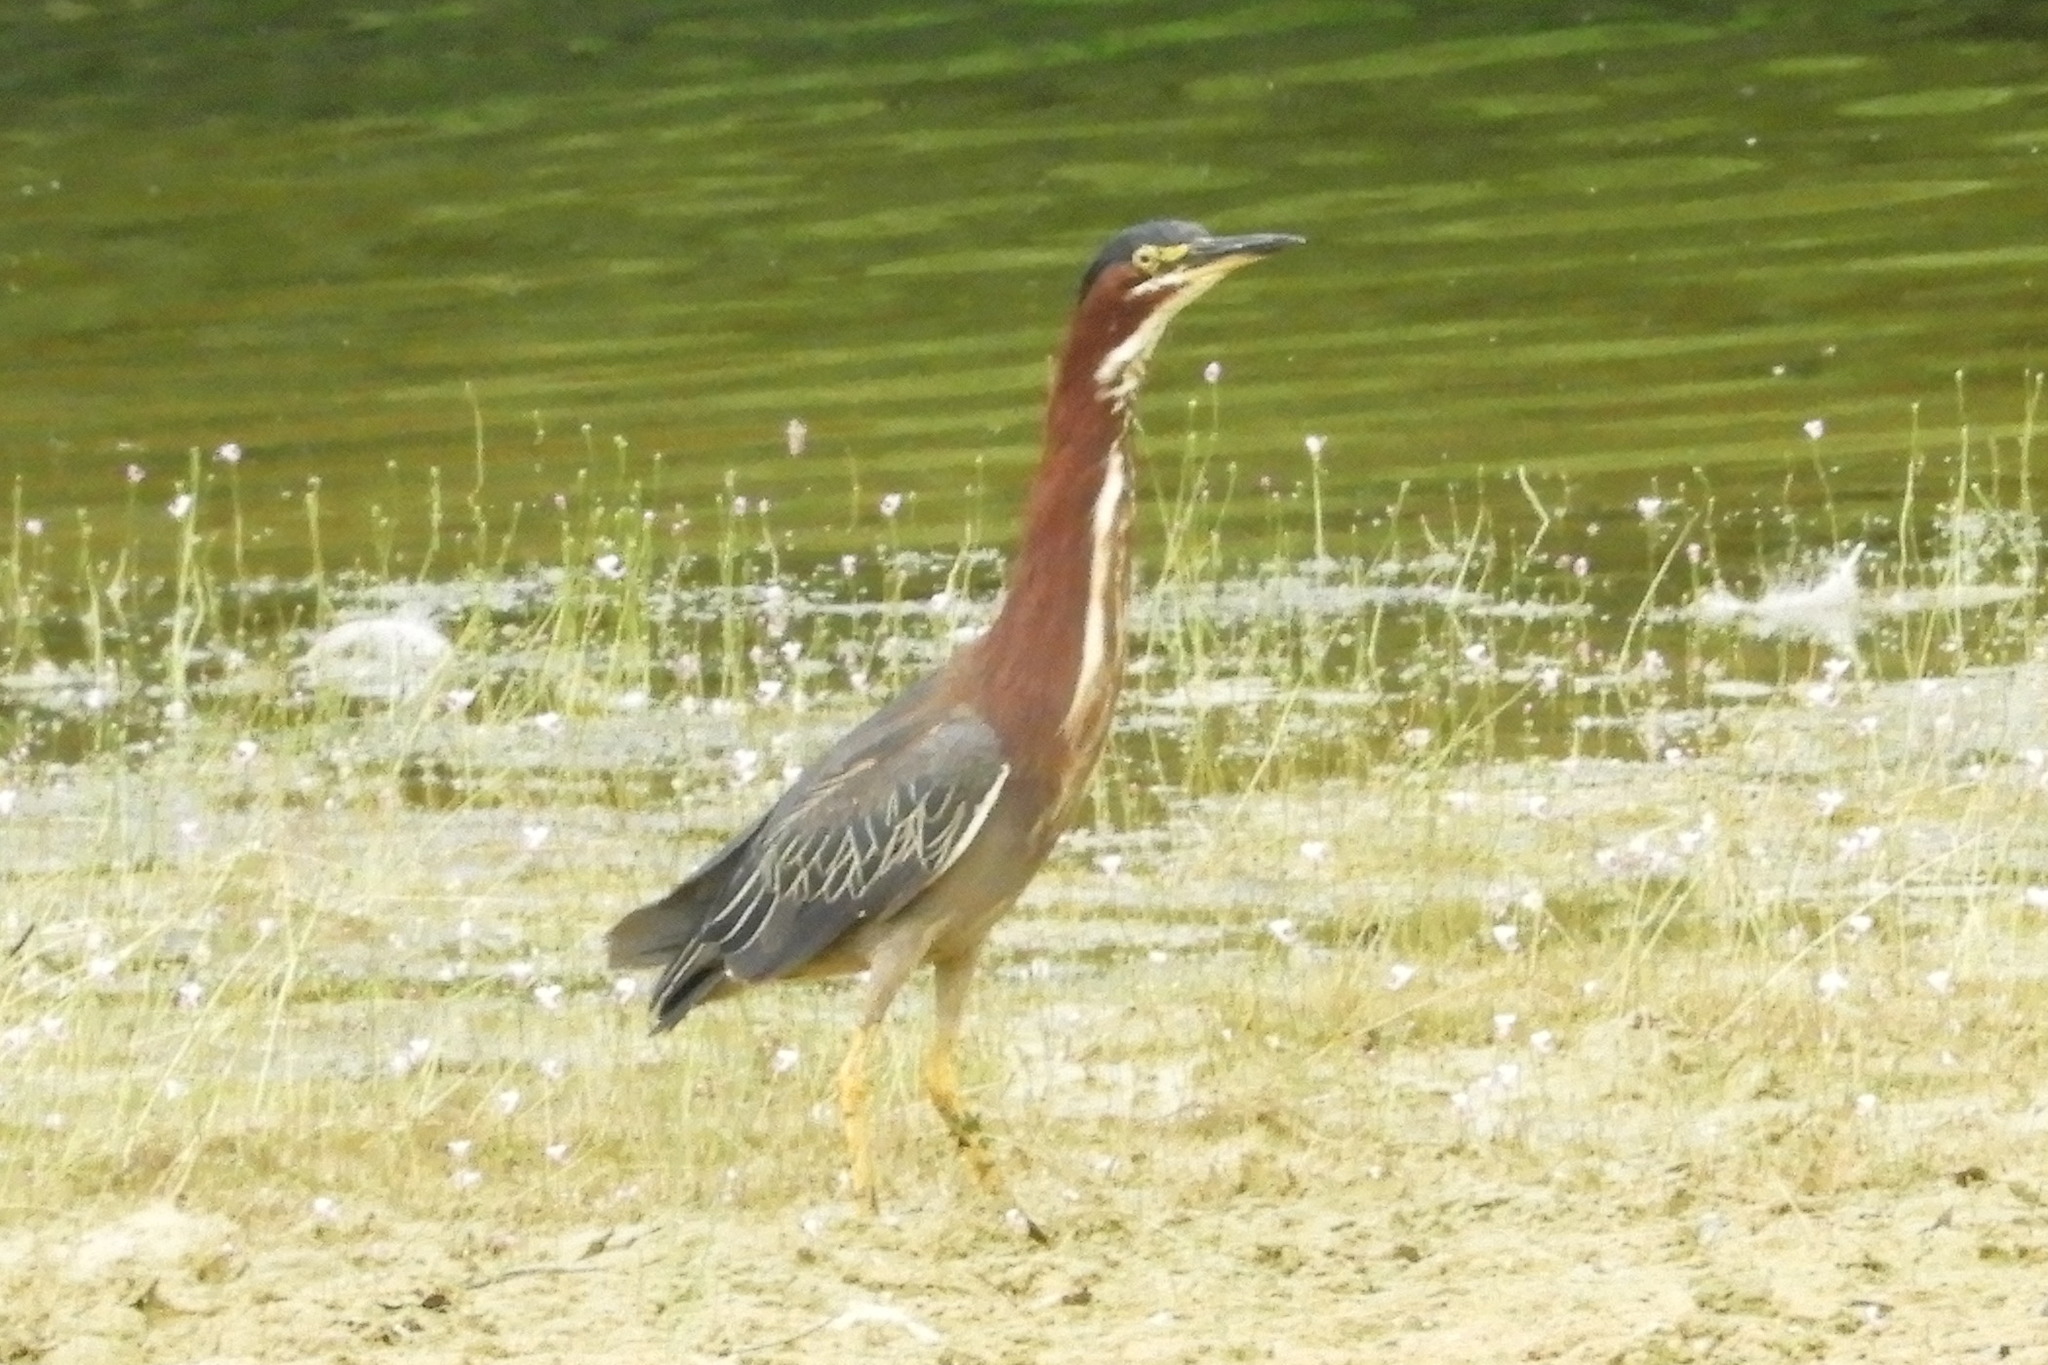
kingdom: Animalia
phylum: Chordata
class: Aves
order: Pelecaniformes
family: Ardeidae
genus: Butorides
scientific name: Butorides virescens
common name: Green heron
